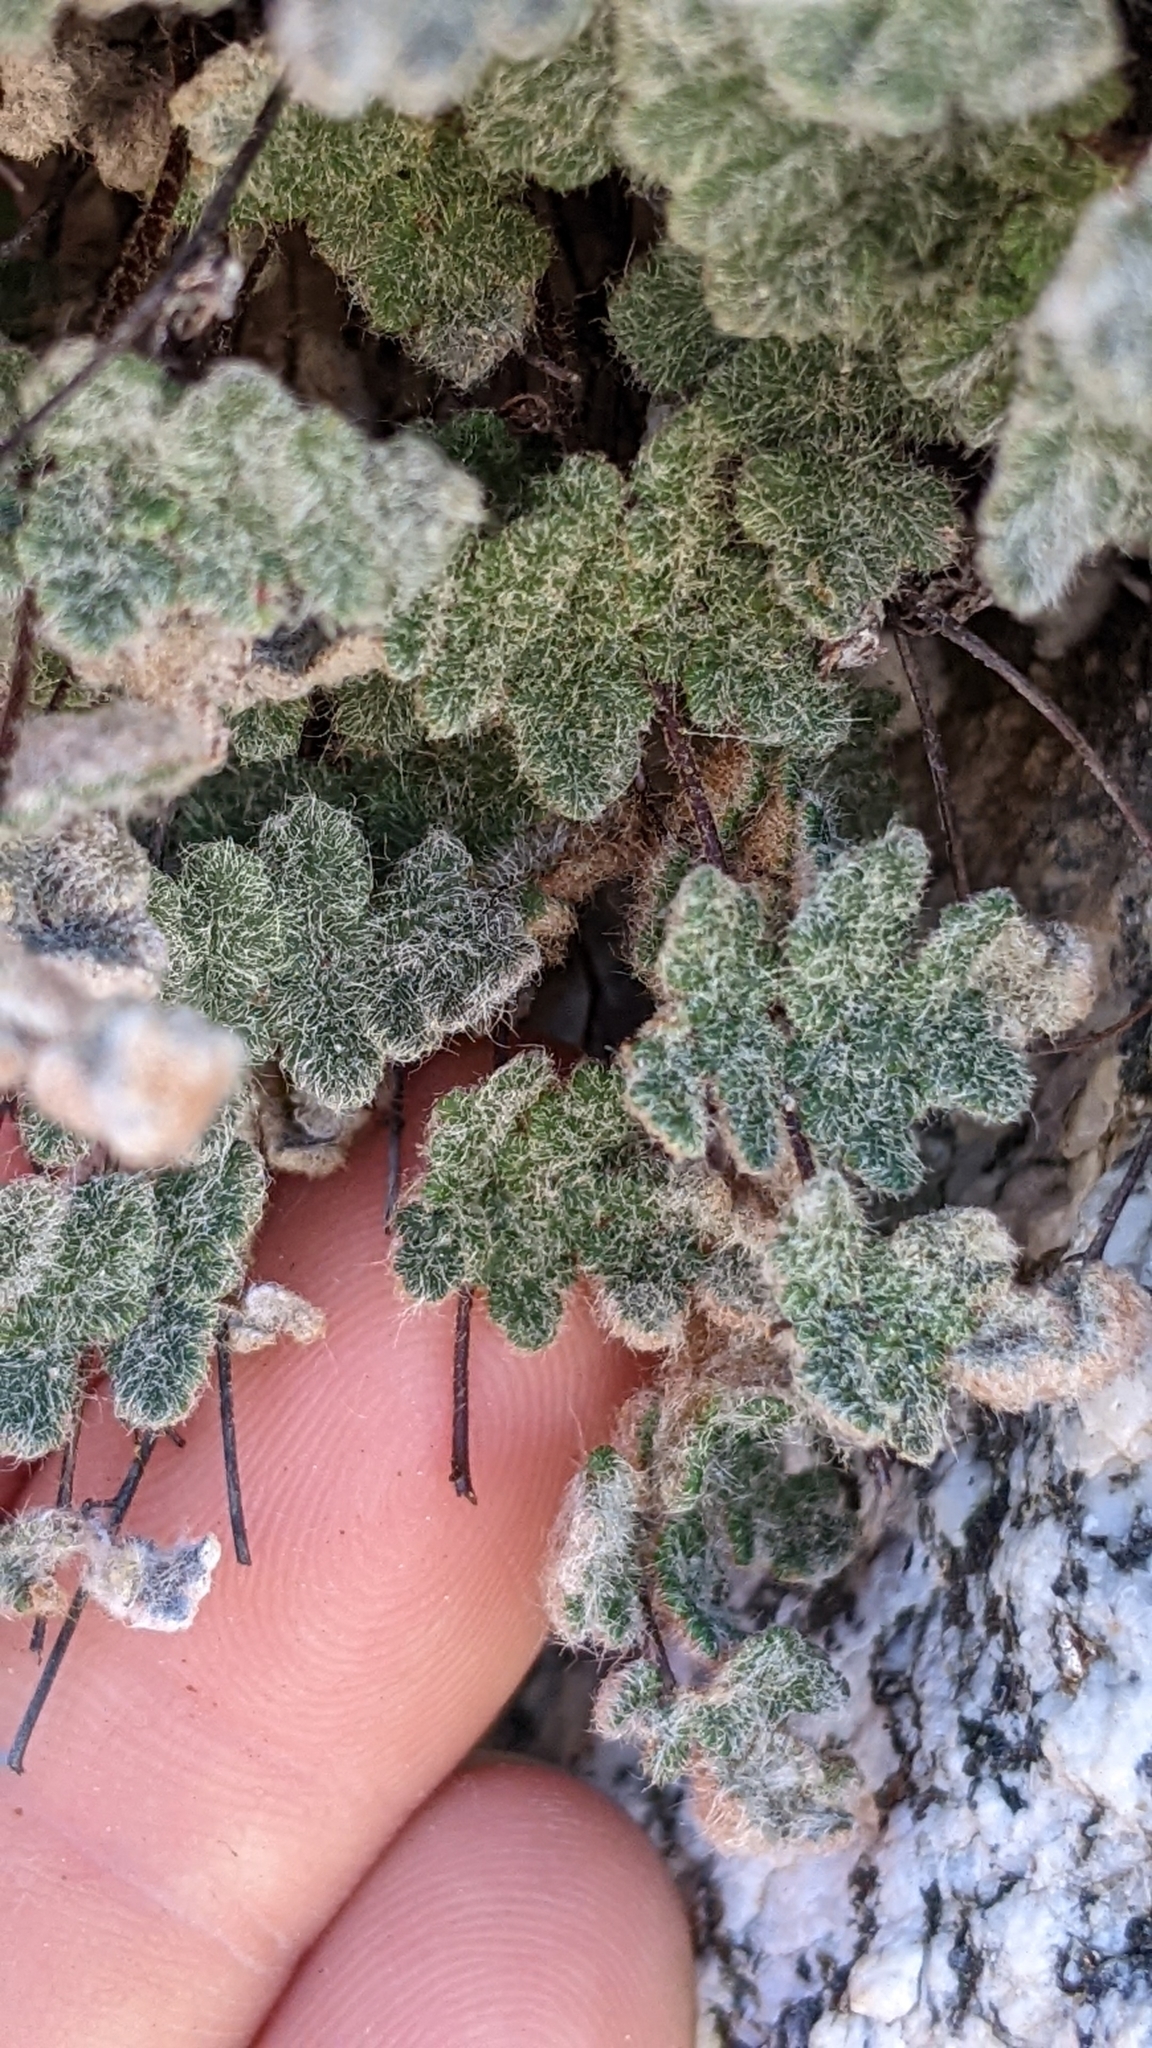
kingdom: Plantae
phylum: Tracheophyta
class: Polypodiopsida
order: Polypodiales
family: Pteridaceae
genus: Myriopteris
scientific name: Myriopteris parryi
